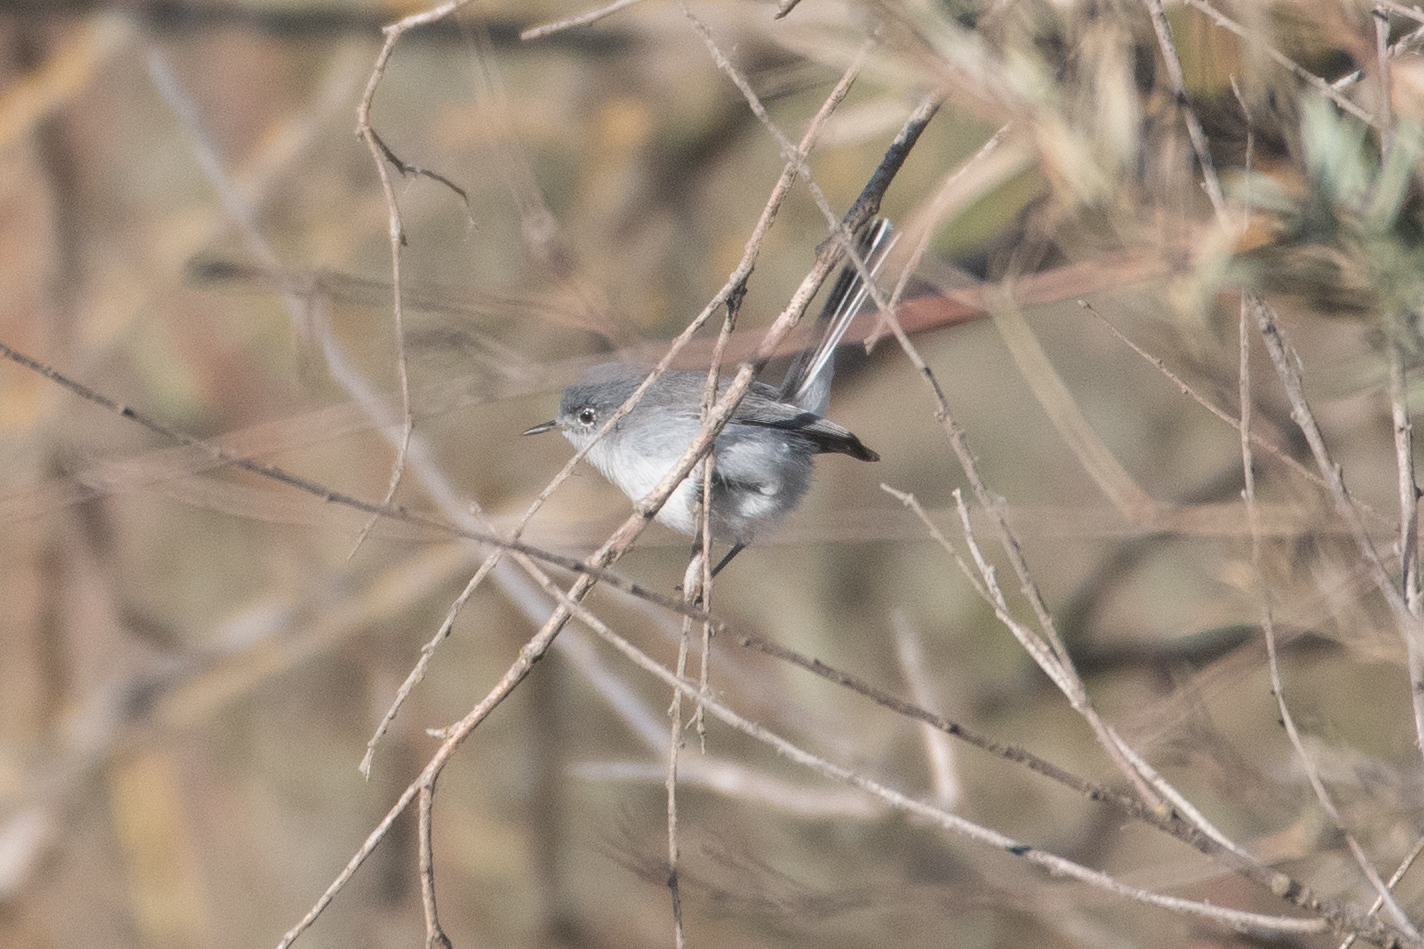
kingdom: Animalia
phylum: Chordata
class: Aves
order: Passeriformes
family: Polioptilidae
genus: Polioptila
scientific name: Polioptila caerulea
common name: Blue-gray gnatcatcher
